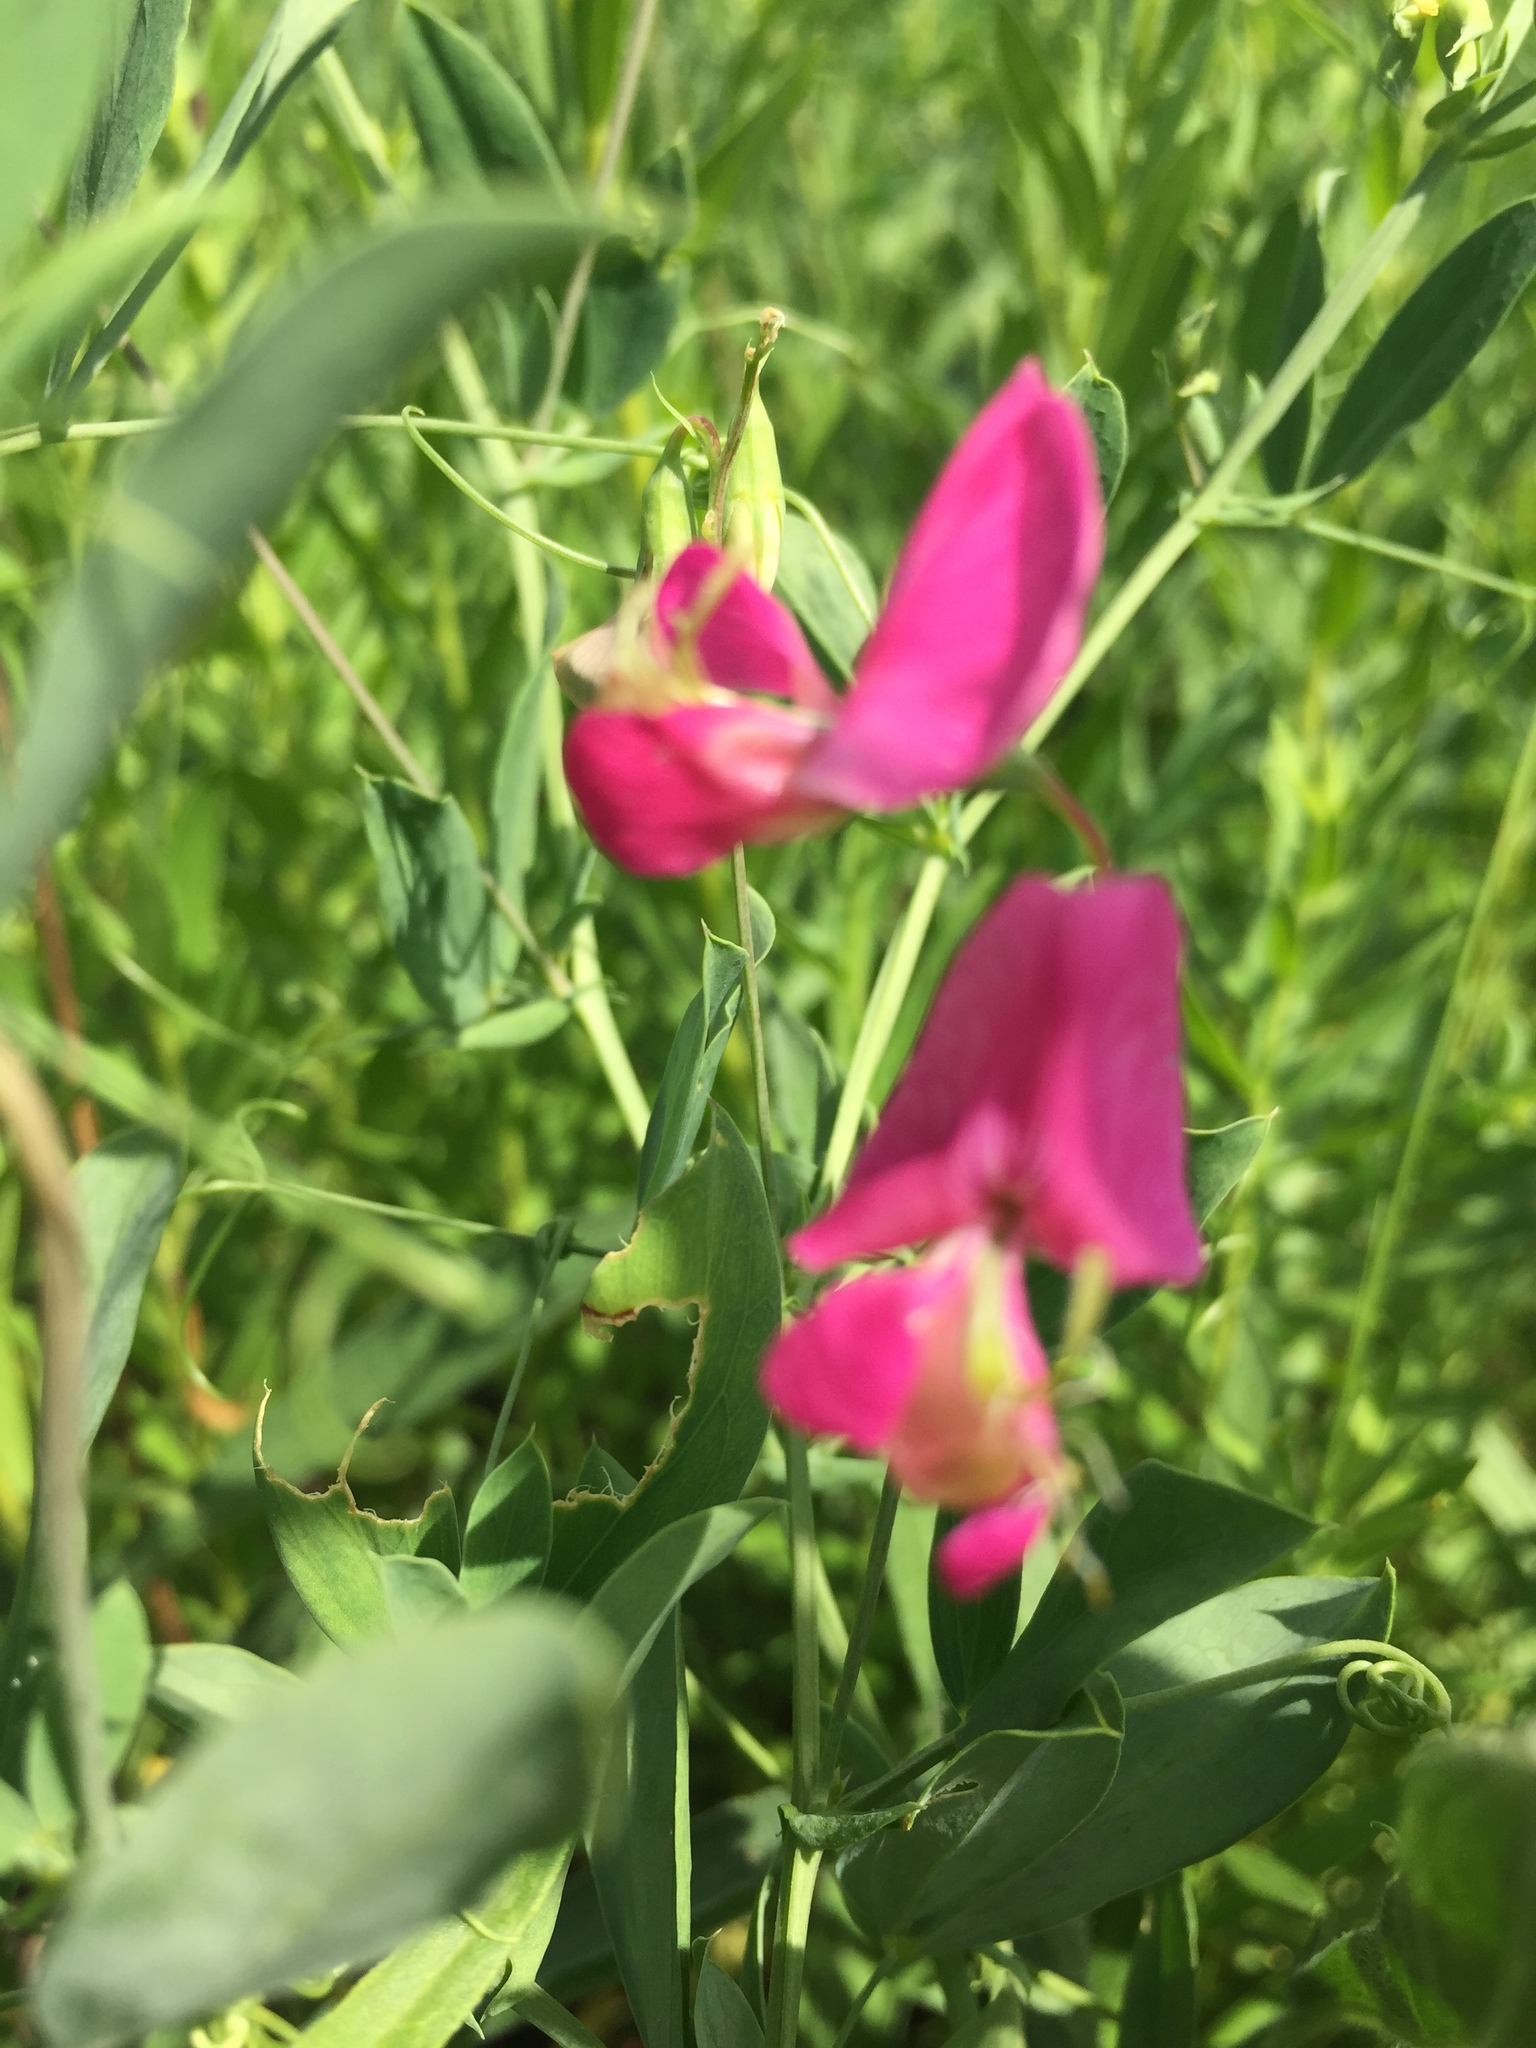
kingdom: Plantae
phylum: Tracheophyta
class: Magnoliopsida
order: Fabales
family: Fabaceae
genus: Lathyrus
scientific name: Lathyrus tuberosus
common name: Tuberous pea
